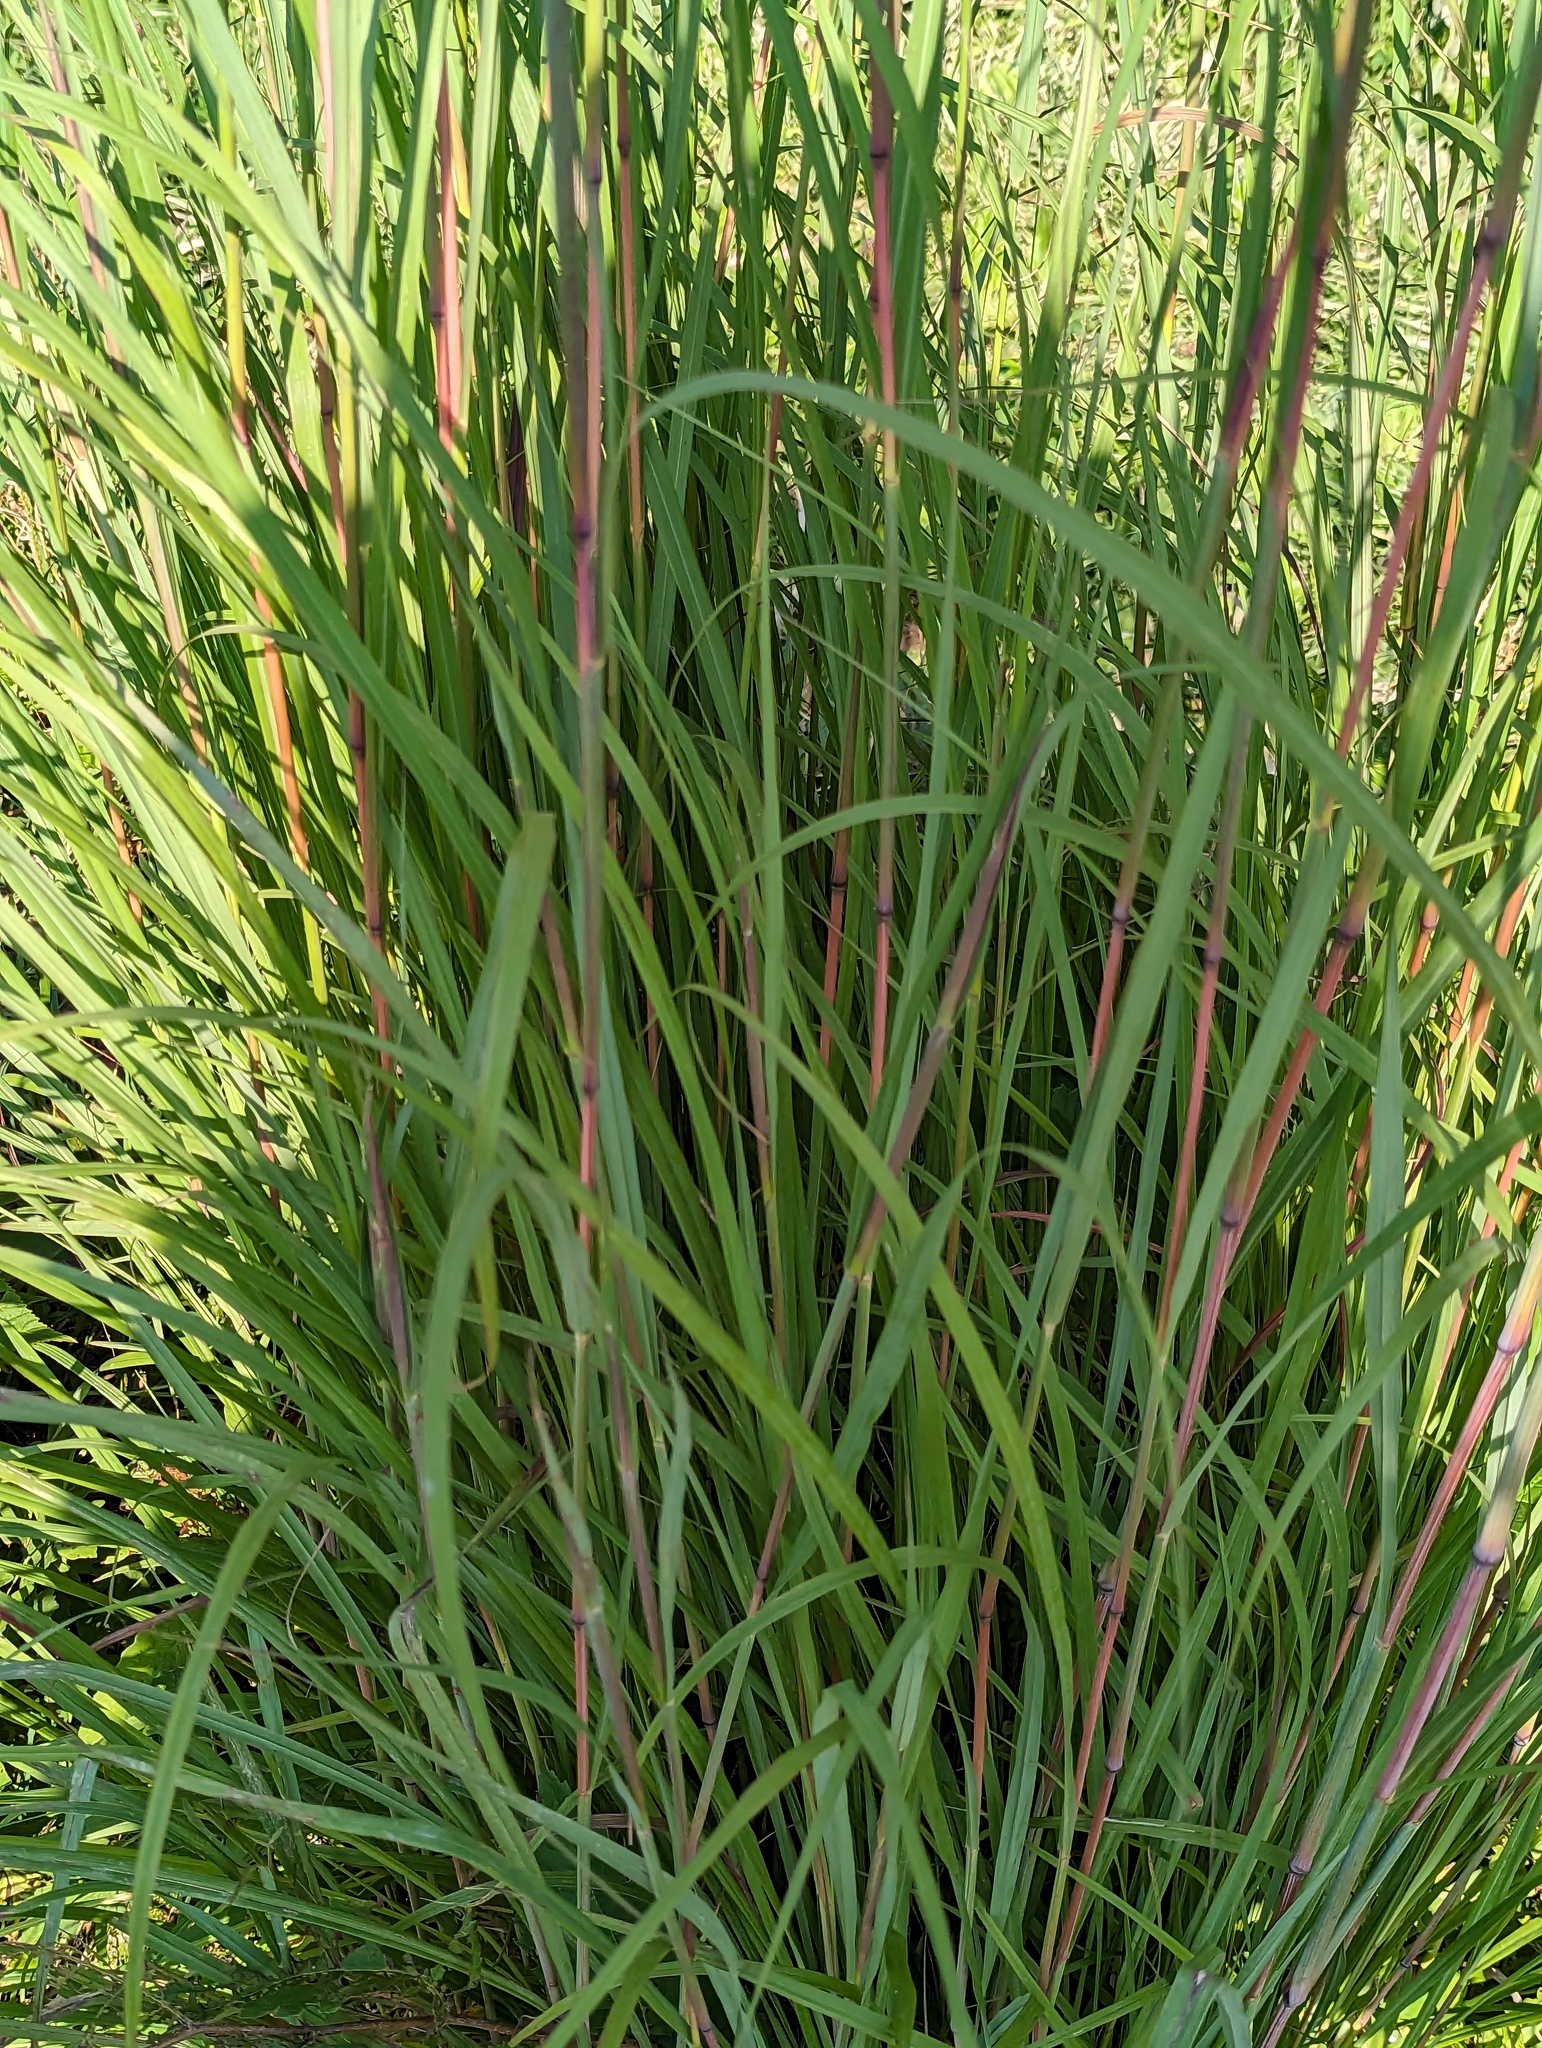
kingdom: Plantae
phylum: Tracheophyta
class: Liliopsida
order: Poales
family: Poaceae
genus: Andropogon
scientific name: Andropogon gerardi
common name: Big bluestem
